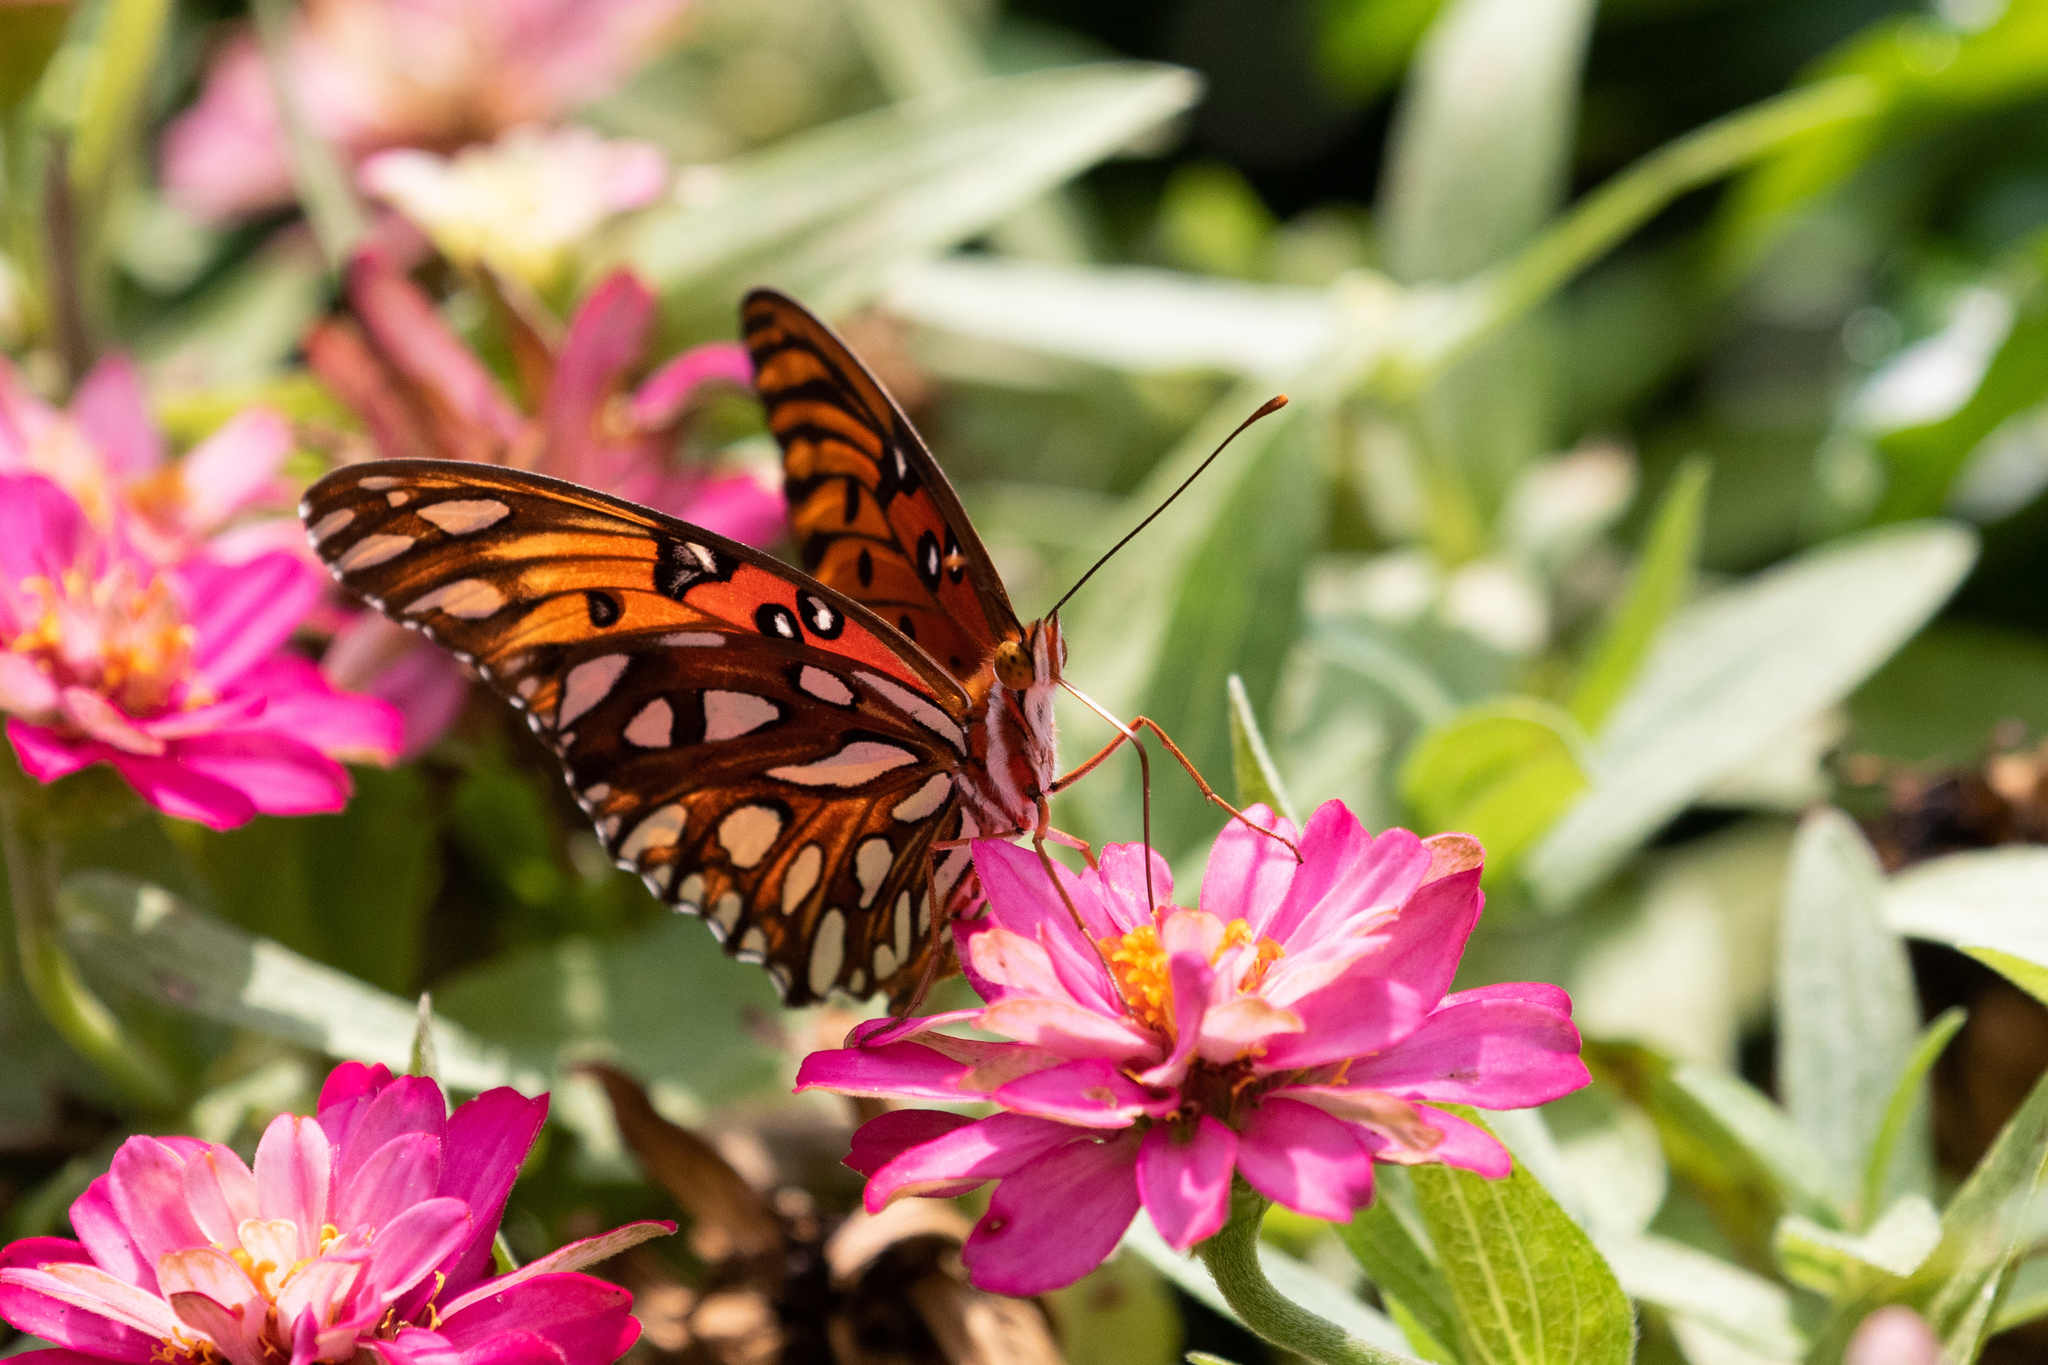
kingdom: Animalia
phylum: Arthropoda
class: Insecta
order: Lepidoptera
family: Nymphalidae
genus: Dione
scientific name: Dione vanillae
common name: Gulf fritillary
